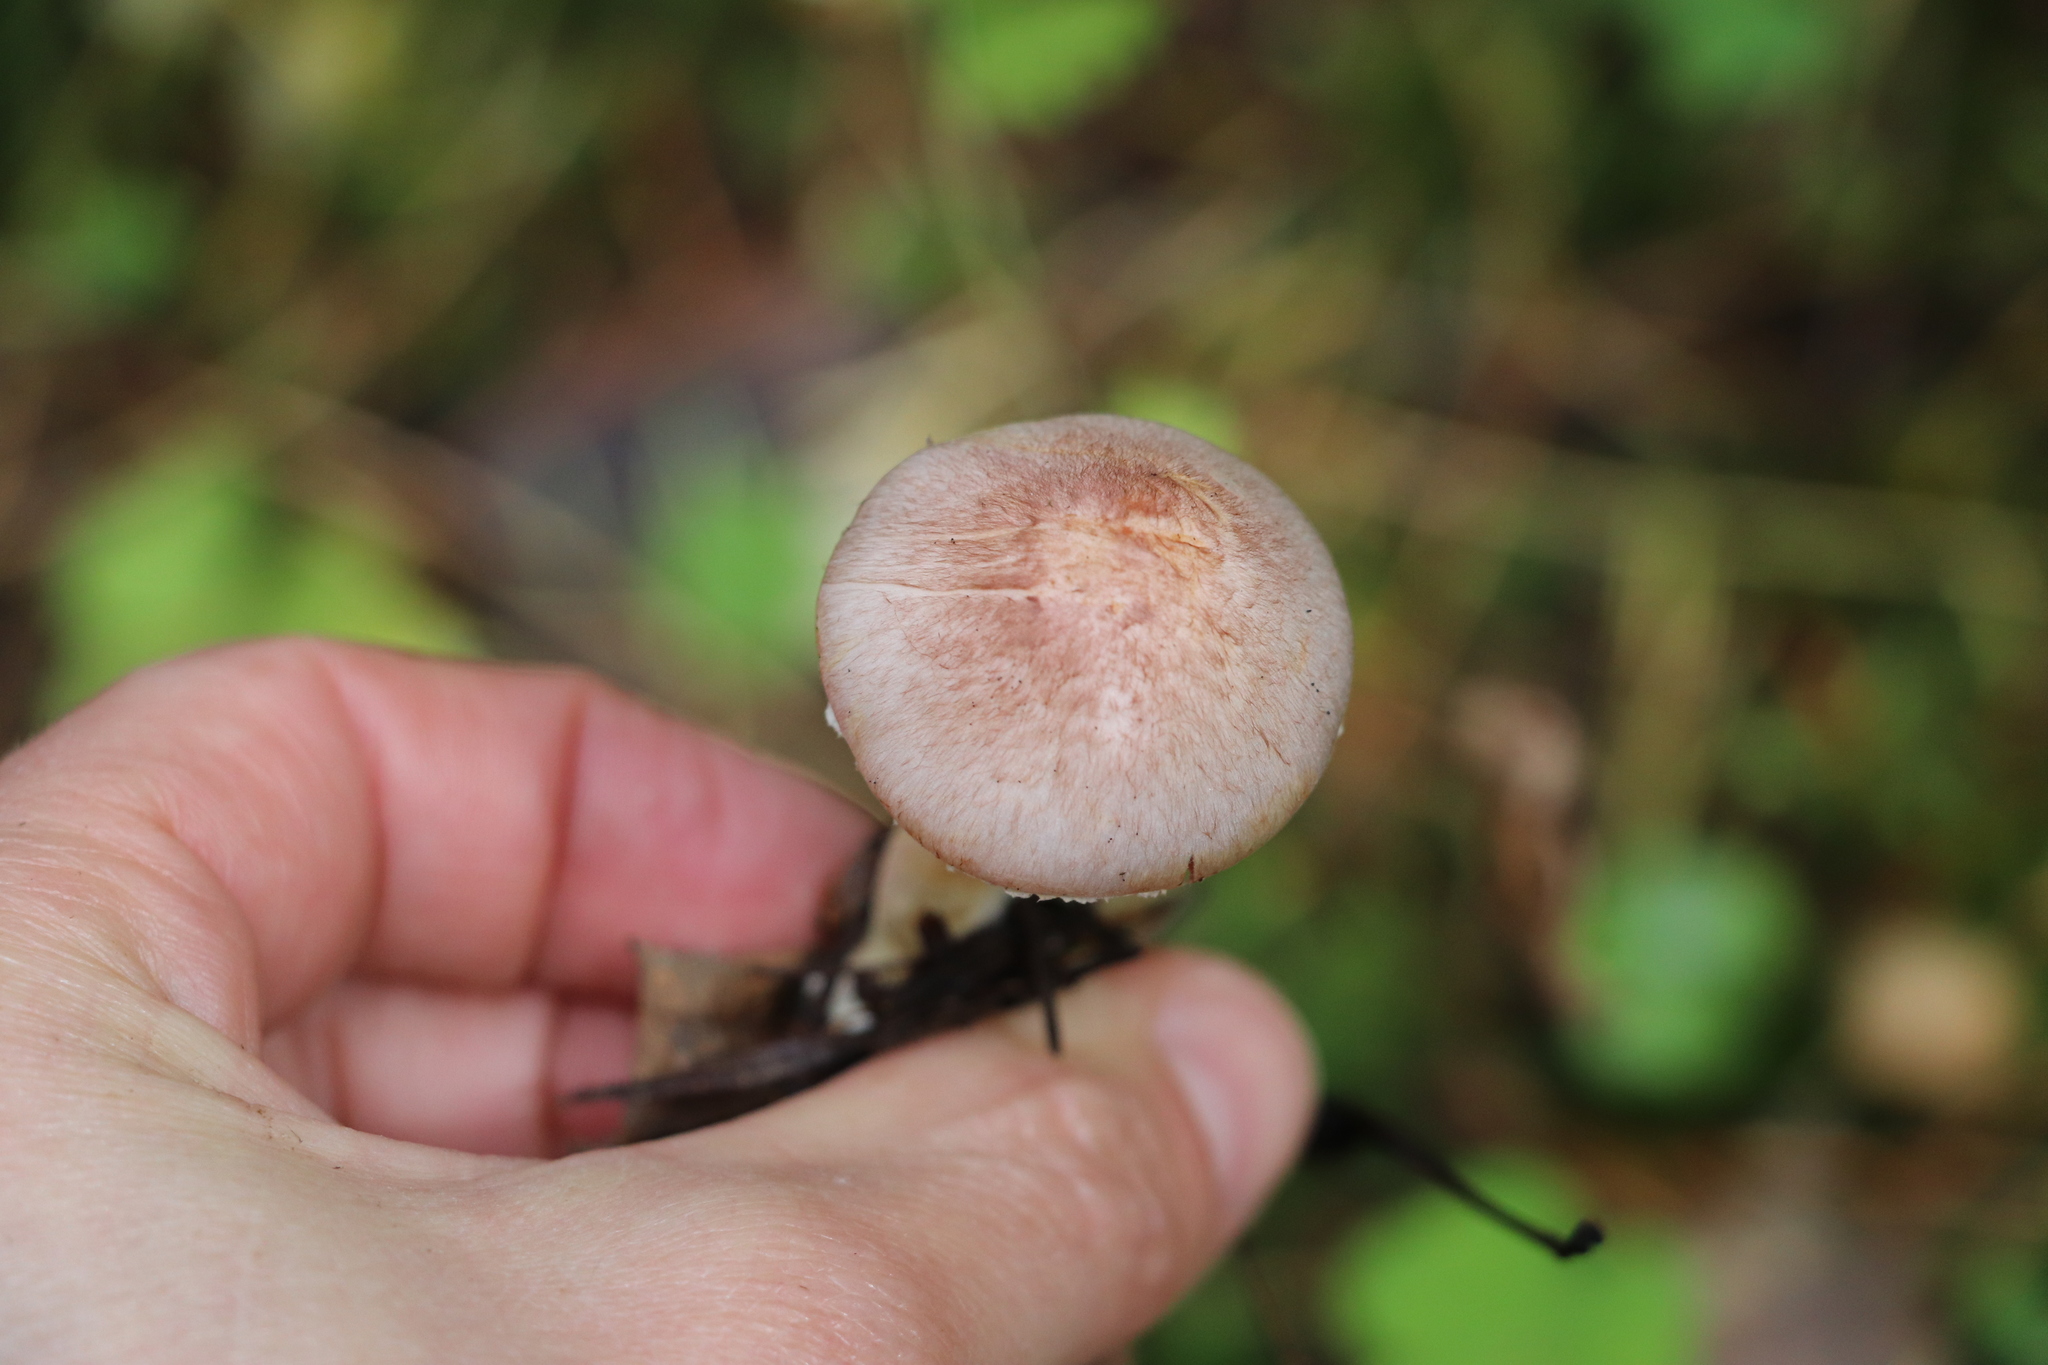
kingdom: Fungi
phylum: Basidiomycota
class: Agaricomycetes
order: Agaricales
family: Agaricaceae
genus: Agaricus
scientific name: Agaricus semotus
